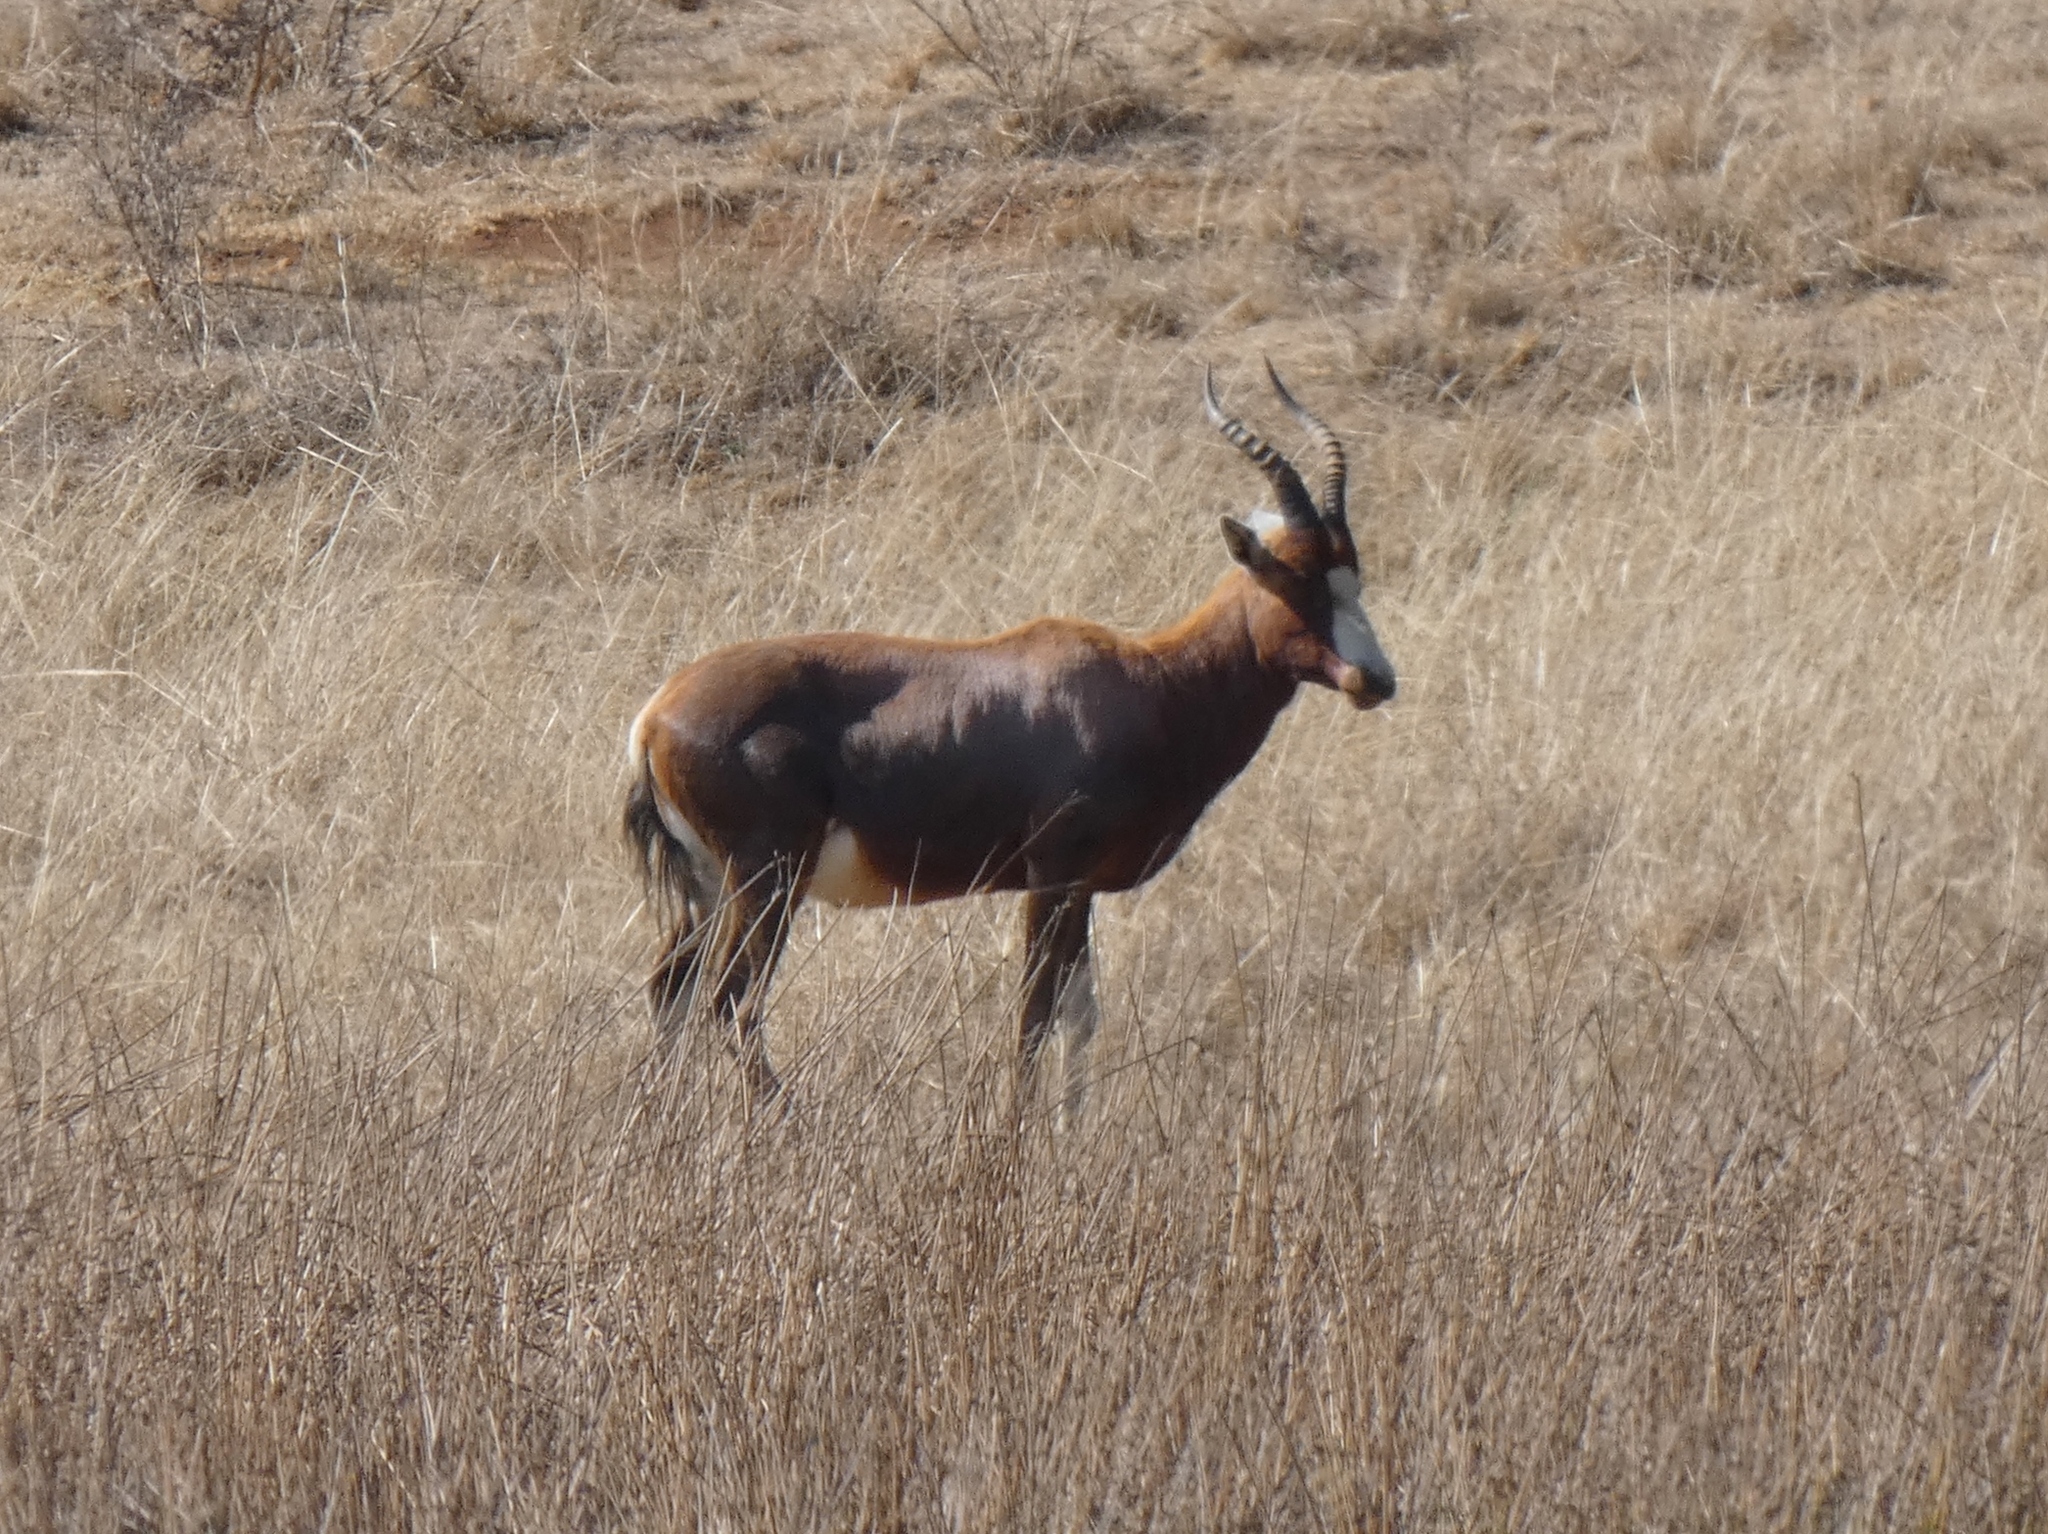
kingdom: Animalia
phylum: Chordata
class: Mammalia
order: Artiodactyla
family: Bovidae
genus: Damaliscus
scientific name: Damaliscus pygargus
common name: Bontebok
